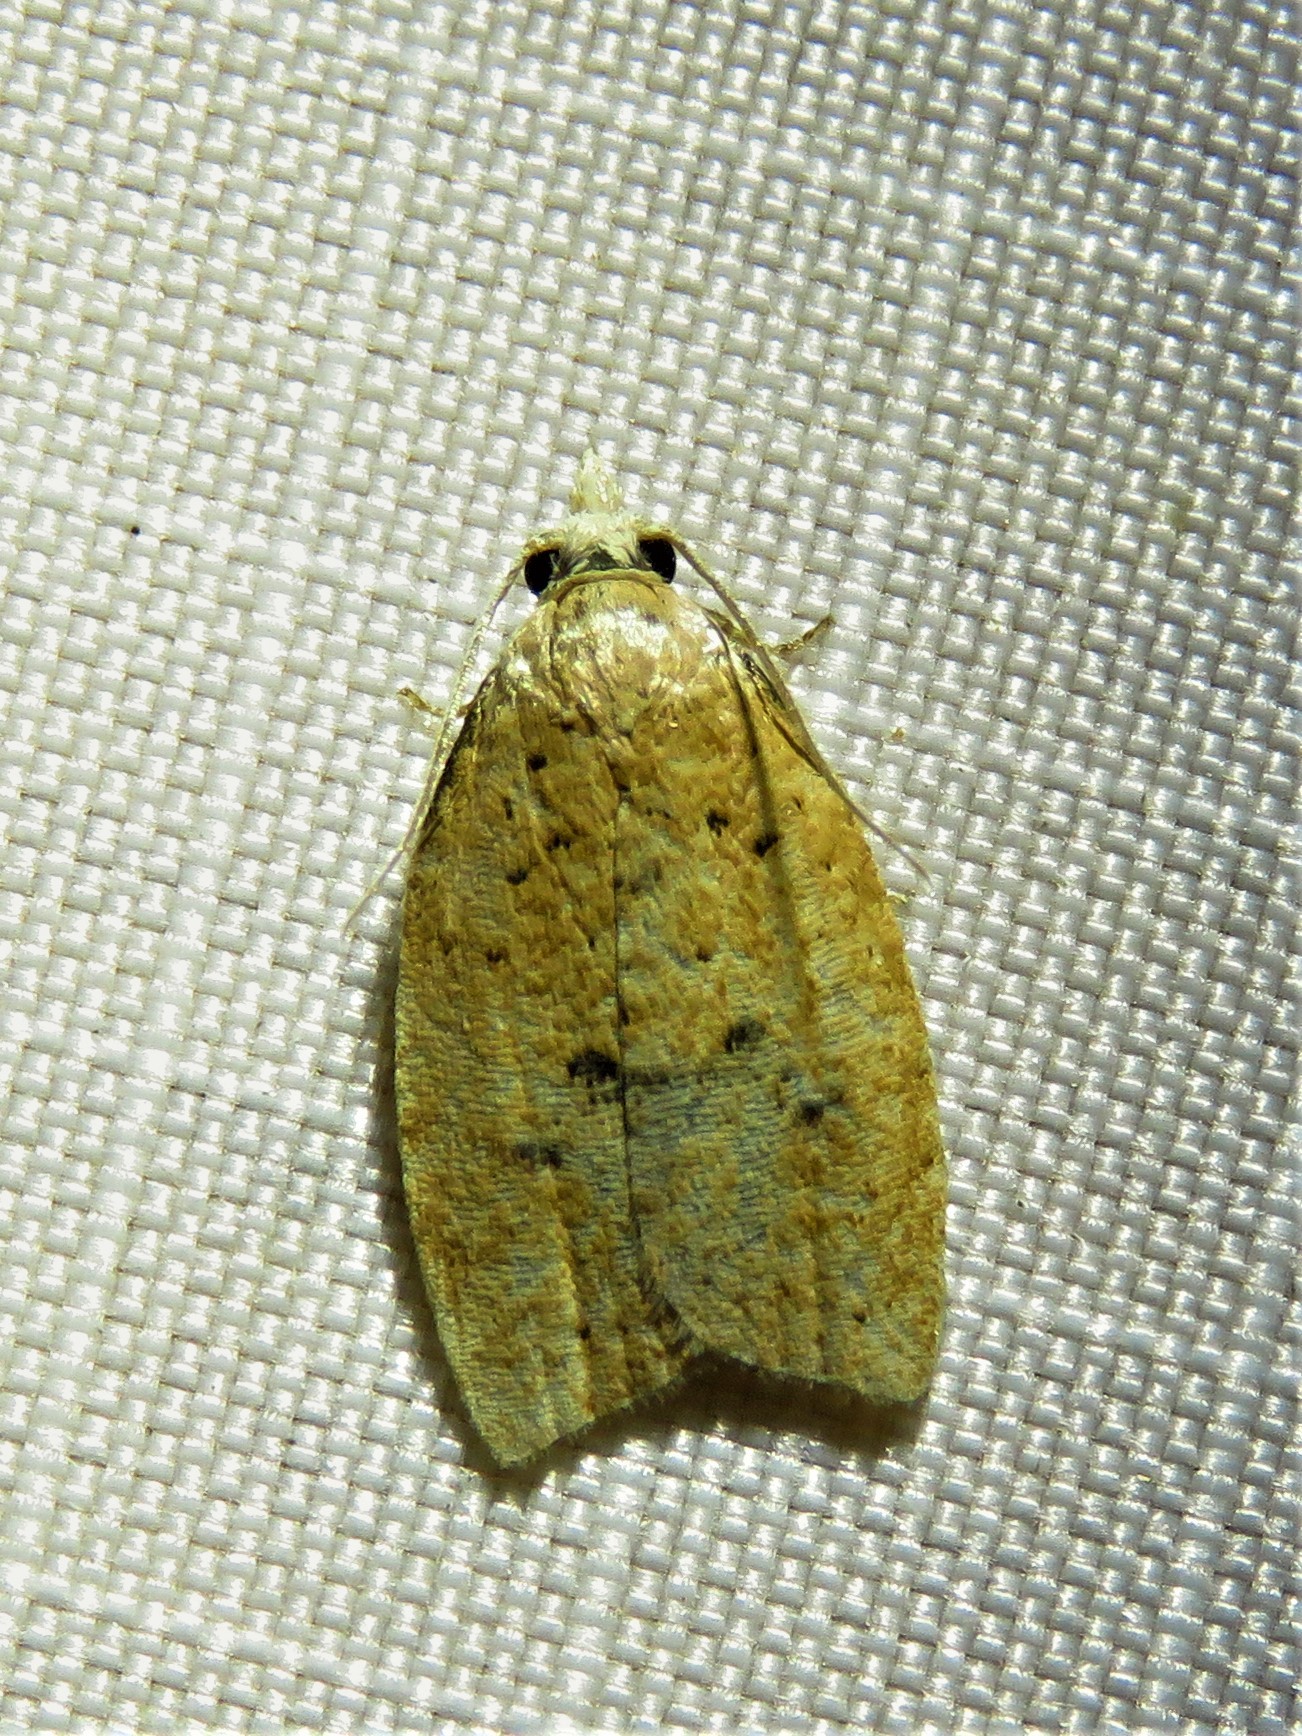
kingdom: Animalia
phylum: Arthropoda
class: Insecta
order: Lepidoptera
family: Tortricidae
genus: Sparganothoides
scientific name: Sparganothoides lentiginosana
